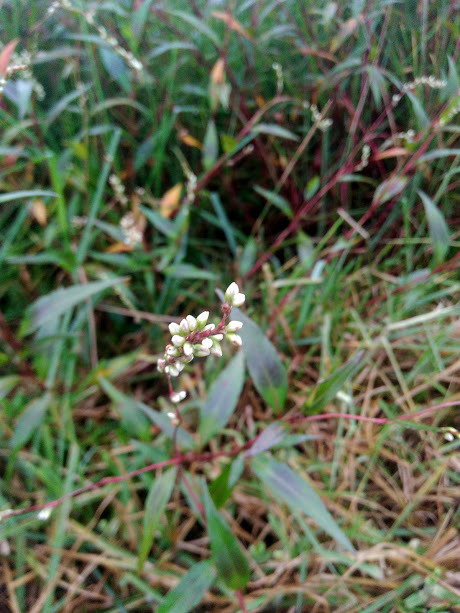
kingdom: Plantae
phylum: Tracheophyta
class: Magnoliopsida
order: Caryophyllales
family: Polygonaceae
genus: Persicaria
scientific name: Persicaria punctata
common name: Dotted smartweed
